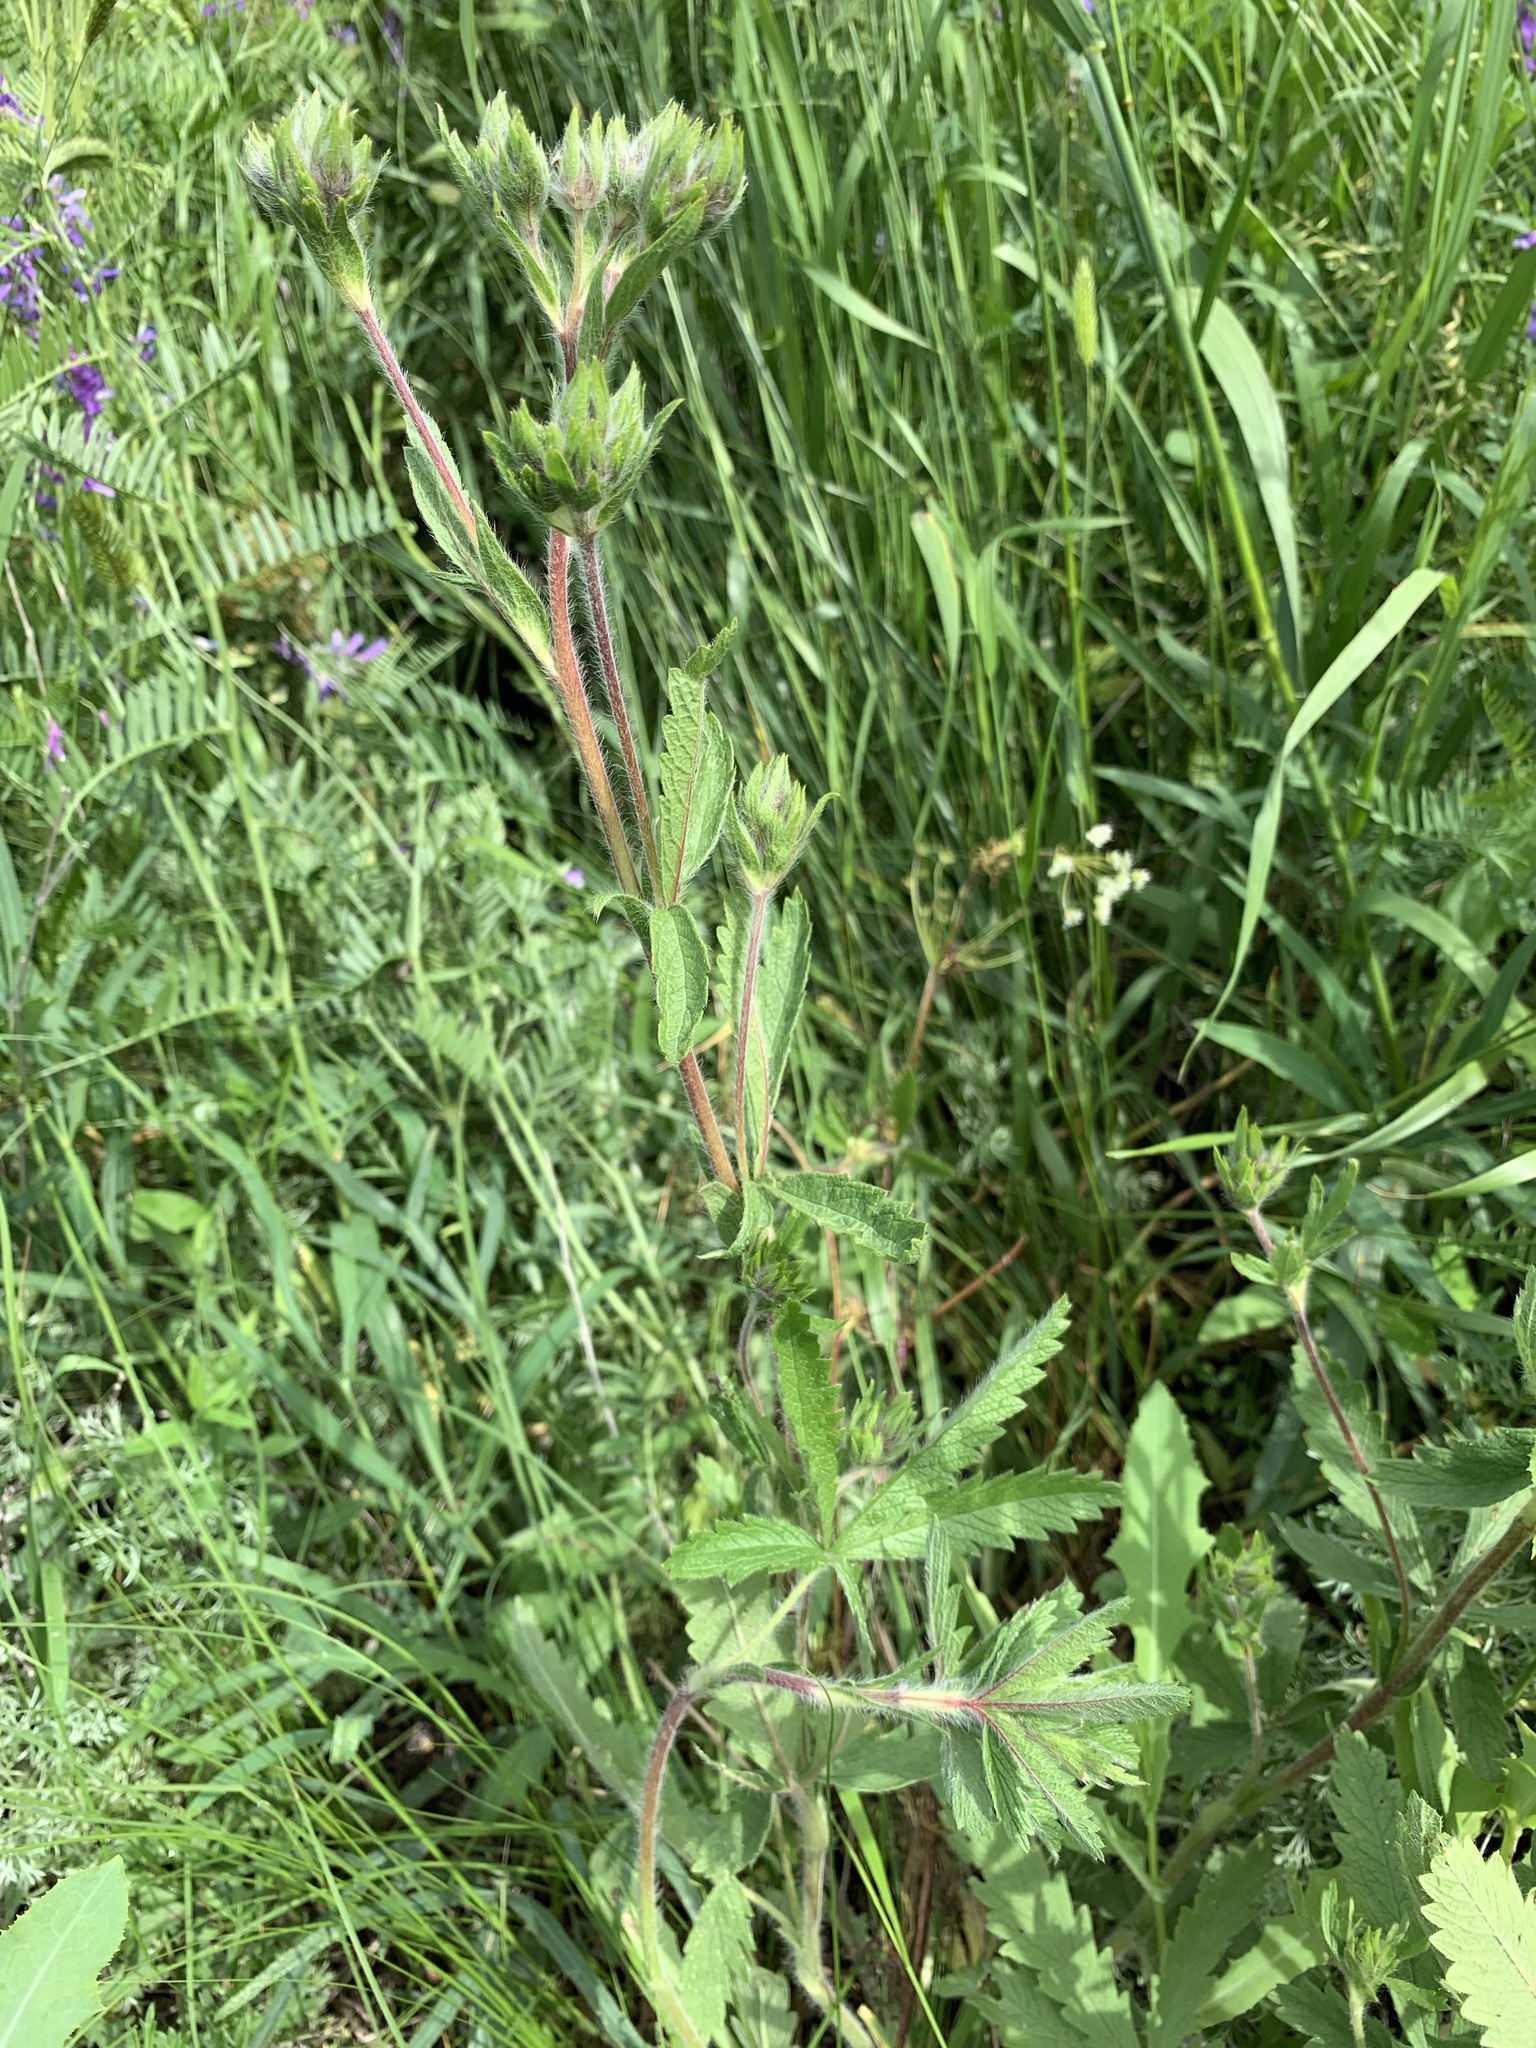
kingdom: Plantae
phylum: Tracheophyta
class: Magnoliopsida
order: Rosales
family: Rosaceae
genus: Potentilla
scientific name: Potentilla
